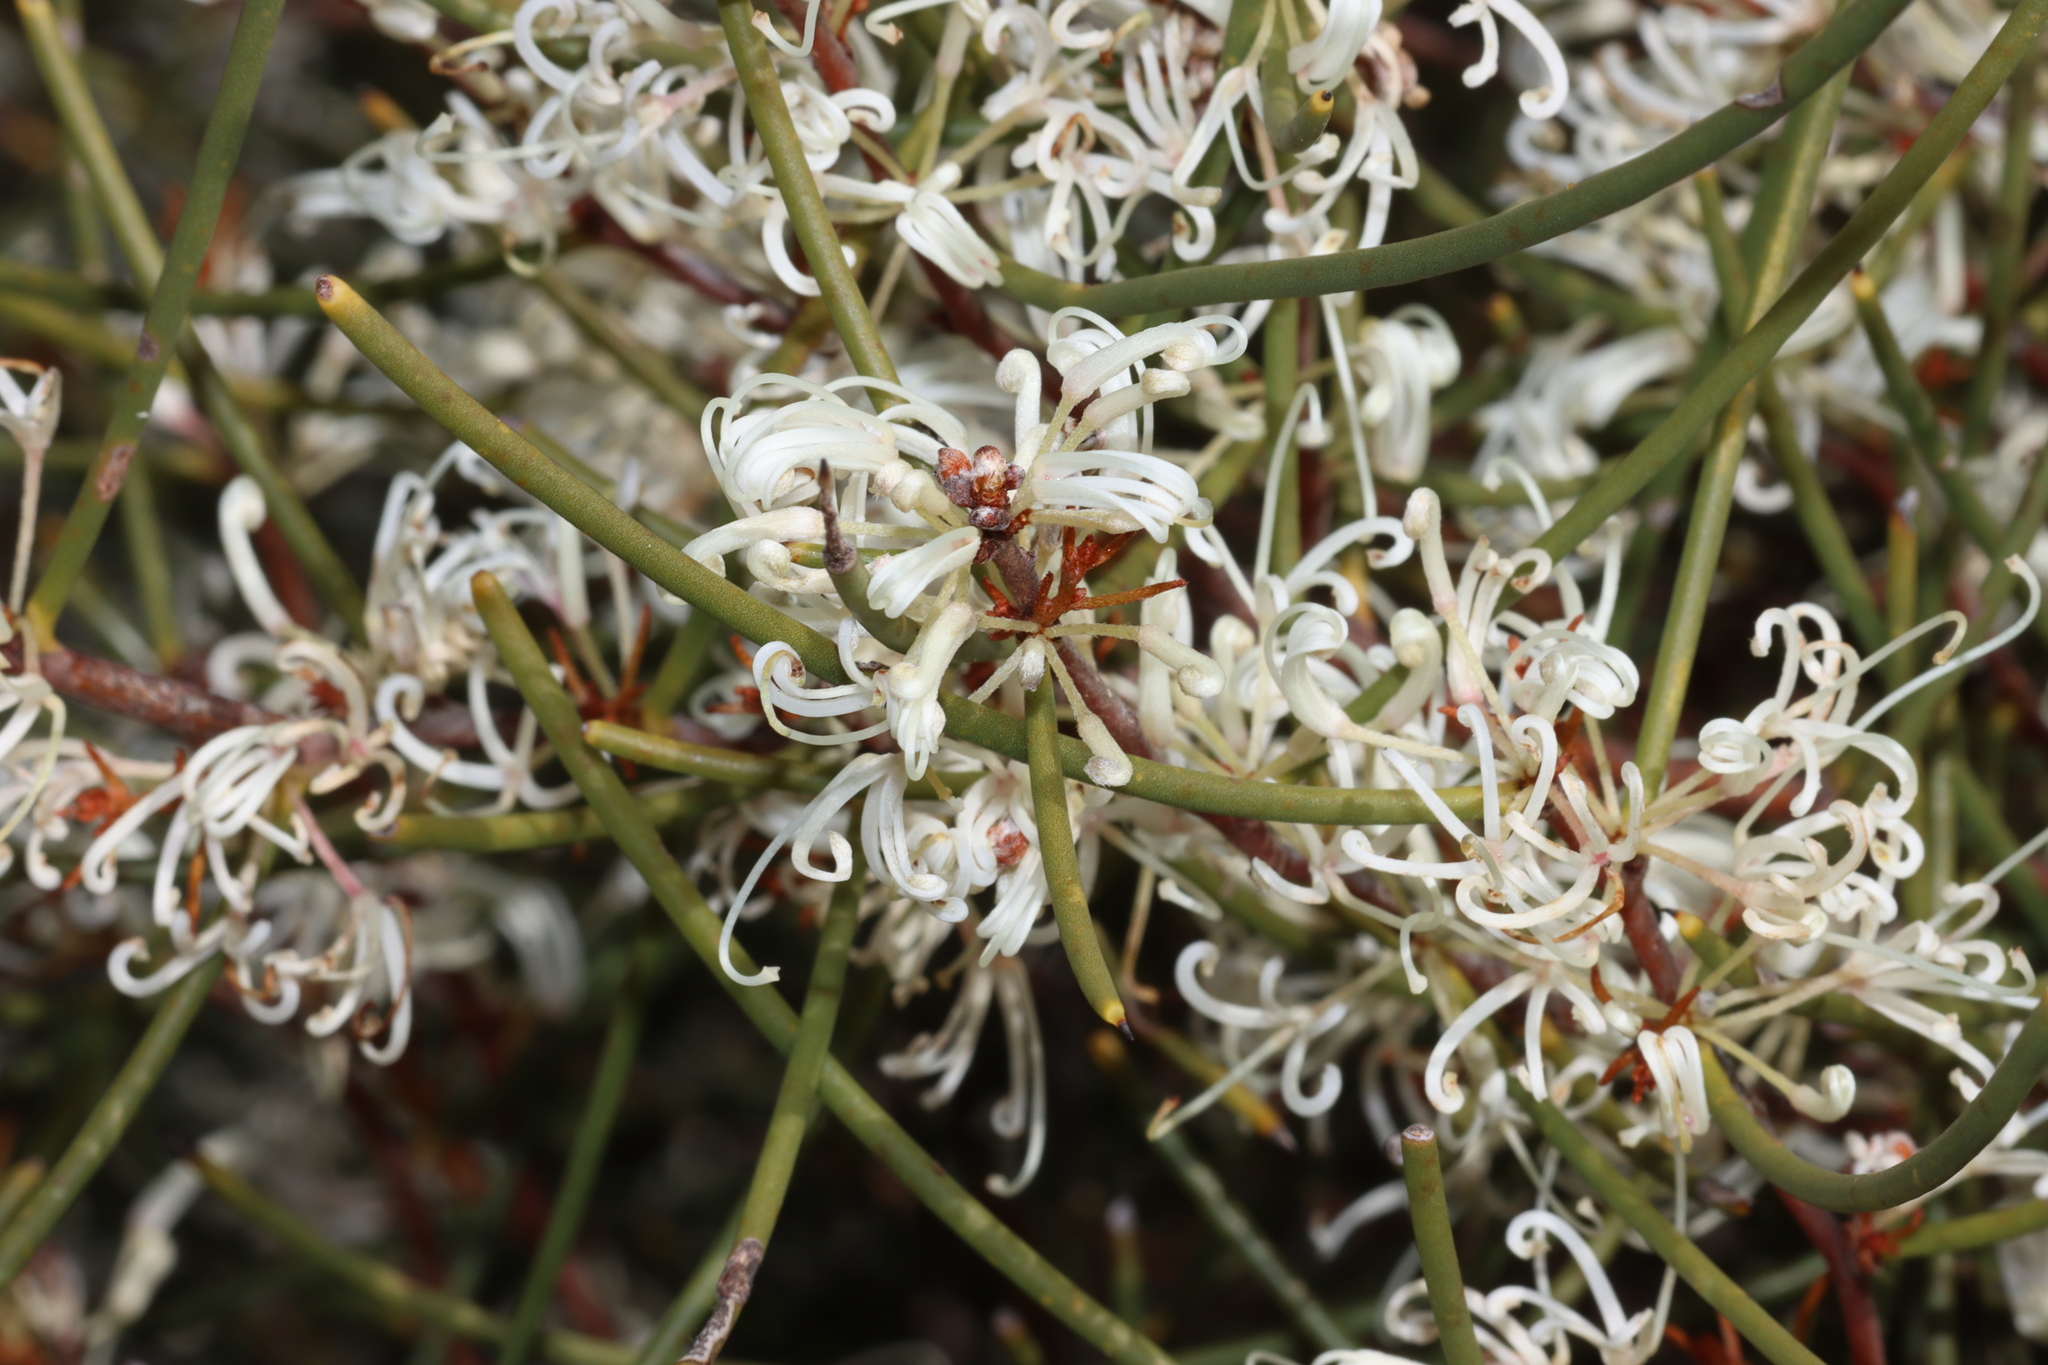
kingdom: Plantae
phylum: Tracheophyta
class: Magnoliopsida
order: Proteales
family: Proteaceae
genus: Hakea
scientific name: Hakea rostrata
